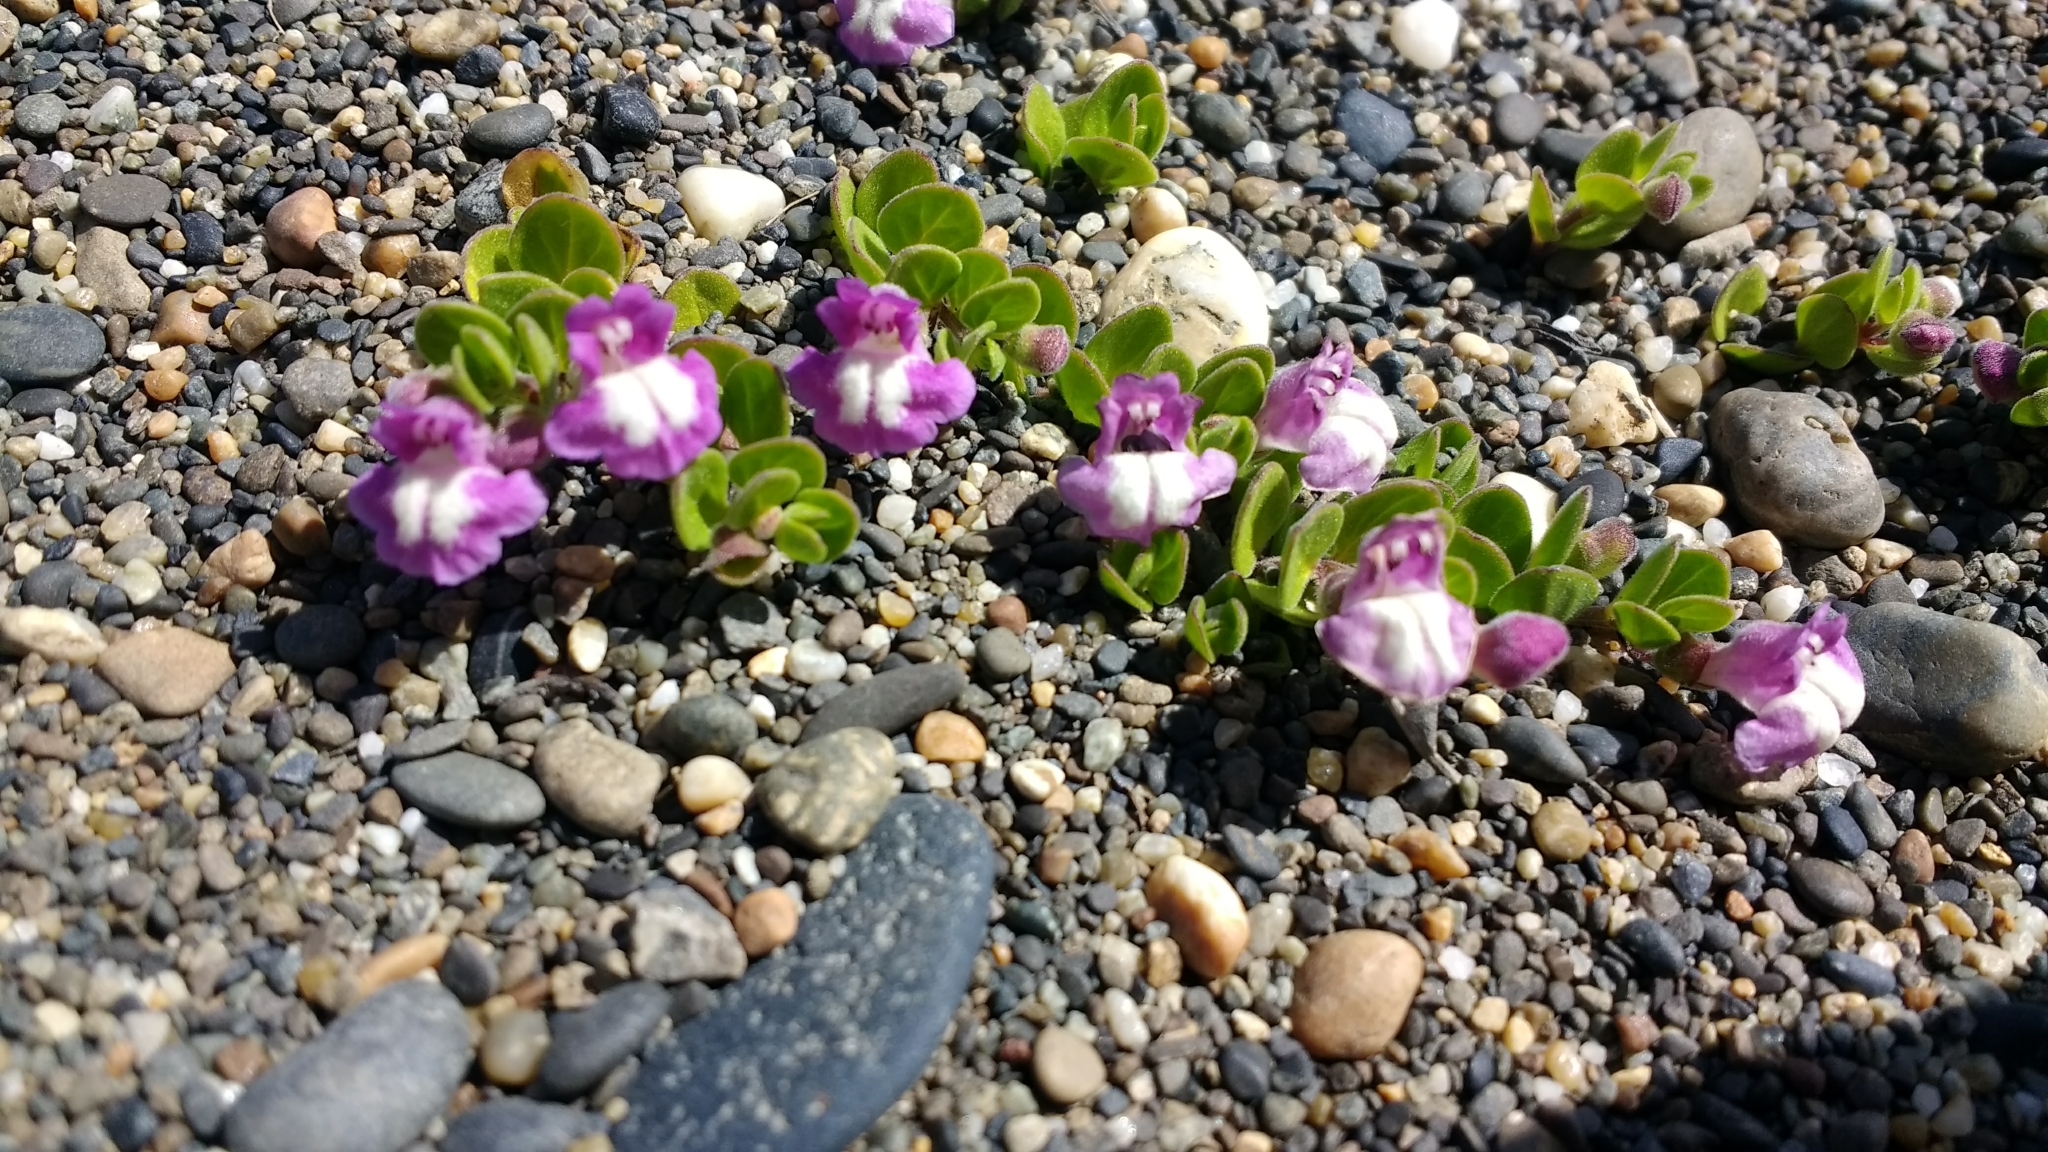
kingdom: Plantae
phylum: Tracheophyta
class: Magnoliopsida
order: Lamiales
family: Lamiaceae
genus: Scutellaria
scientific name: Scutellaria nummulariifolia
